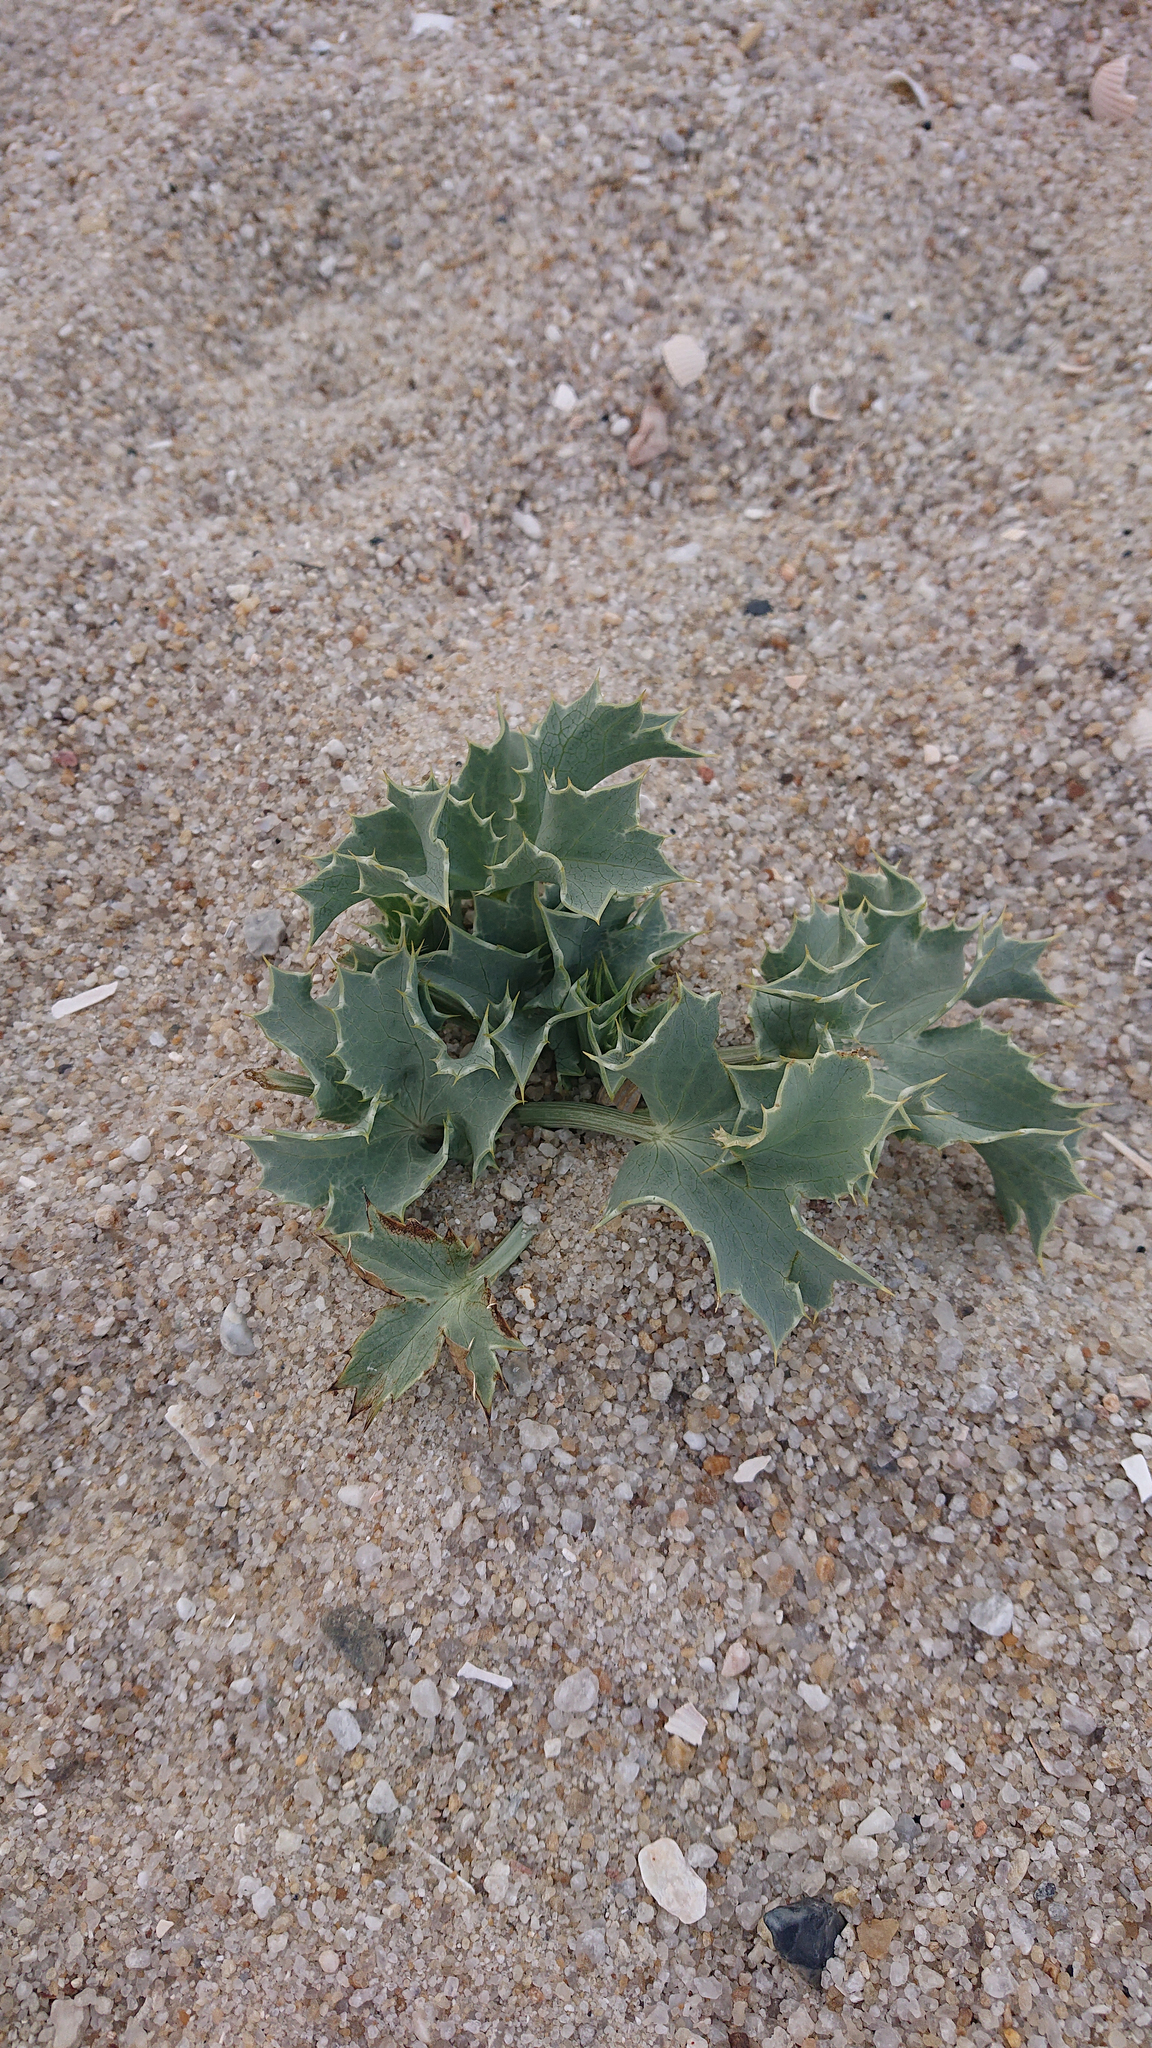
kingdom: Plantae
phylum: Tracheophyta
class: Magnoliopsida
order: Apiales
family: Apiaceae
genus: Eryngium
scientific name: Eryngium maritimum
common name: Sea-holly
